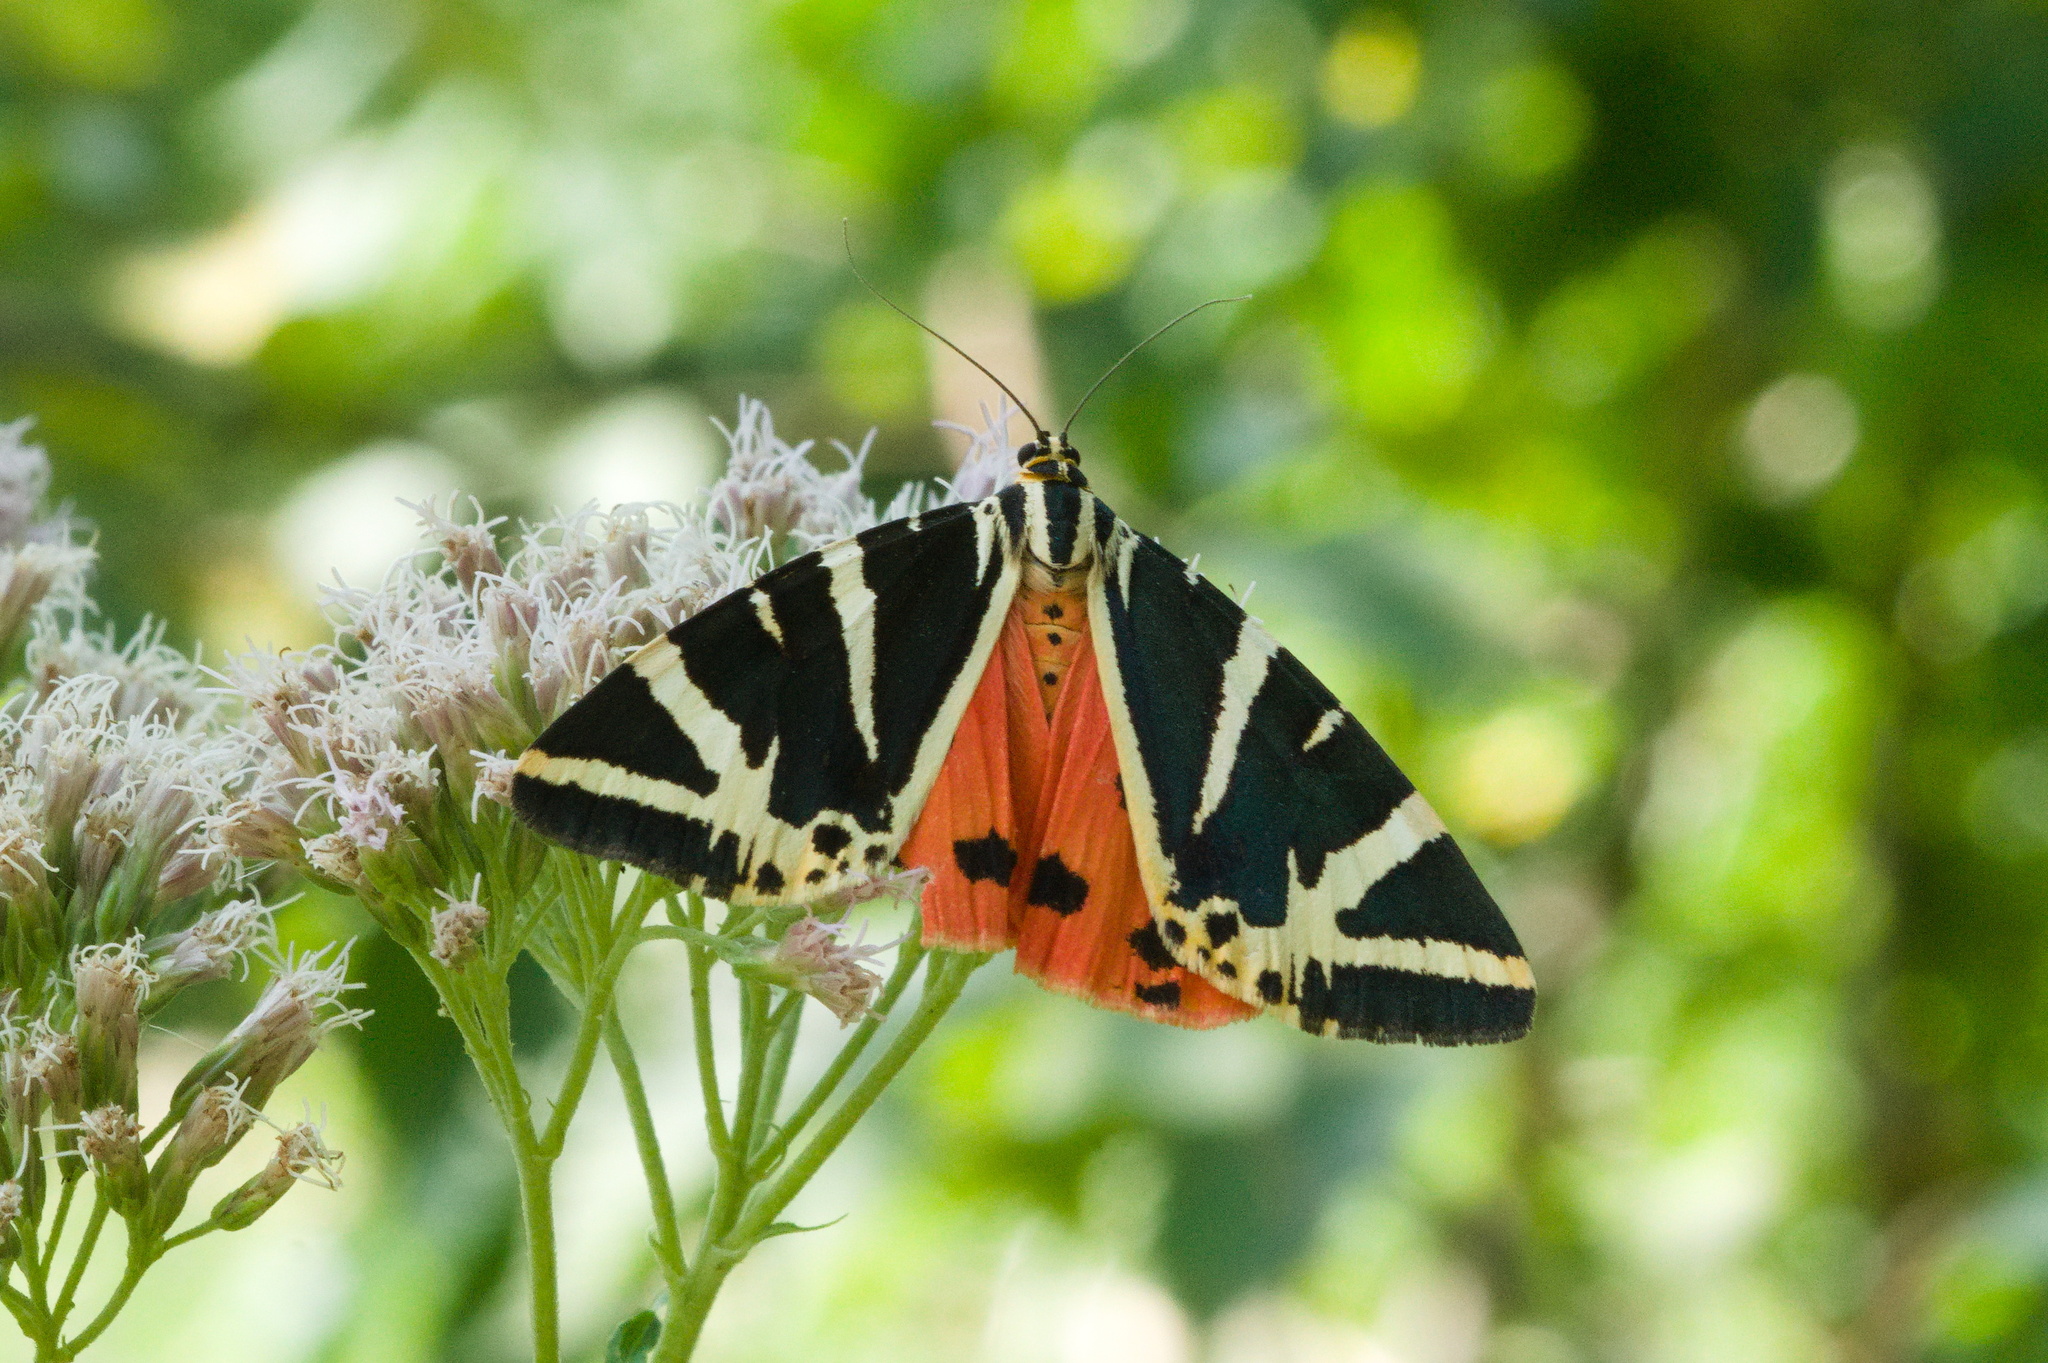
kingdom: Animalia
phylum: Arthropoda
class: Insecta
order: Lepidoptera
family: Erebidae
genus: Euplagia
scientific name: Euplagia quadripunctaria
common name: Jersey tiger
